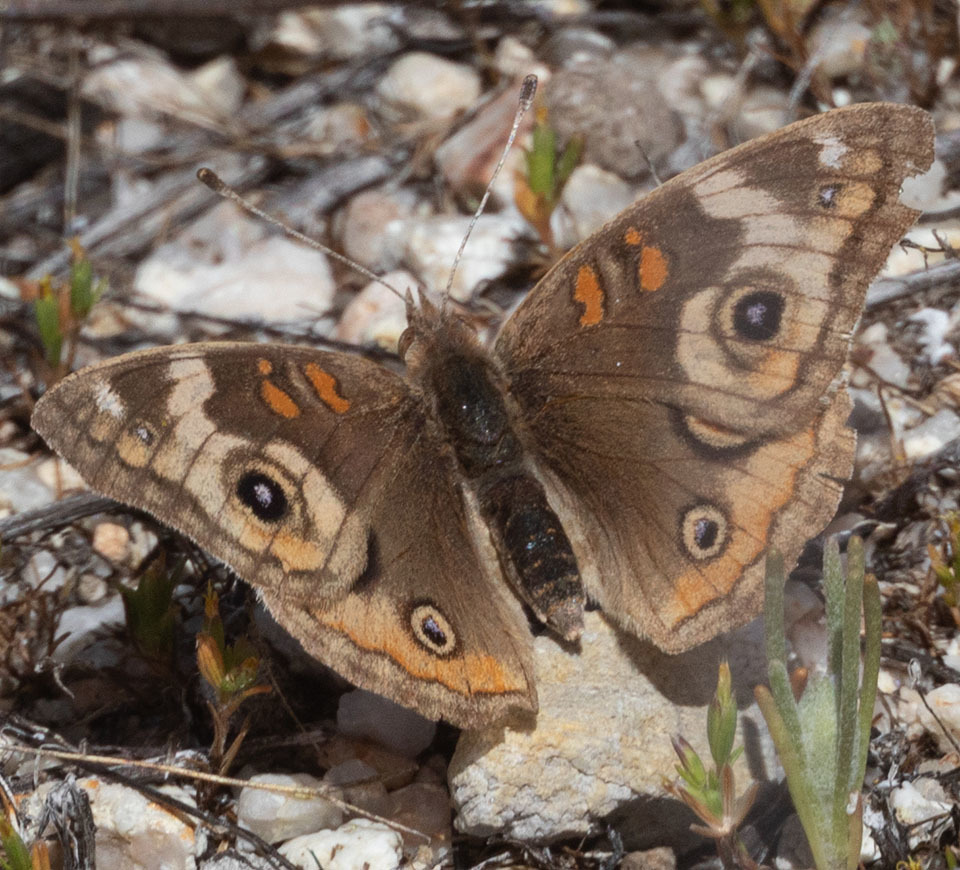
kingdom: Animalia
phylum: Arthropoda
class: Insecta
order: Lepidoptera
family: Nymphalidae
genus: Junonia
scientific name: Junonia grisea
